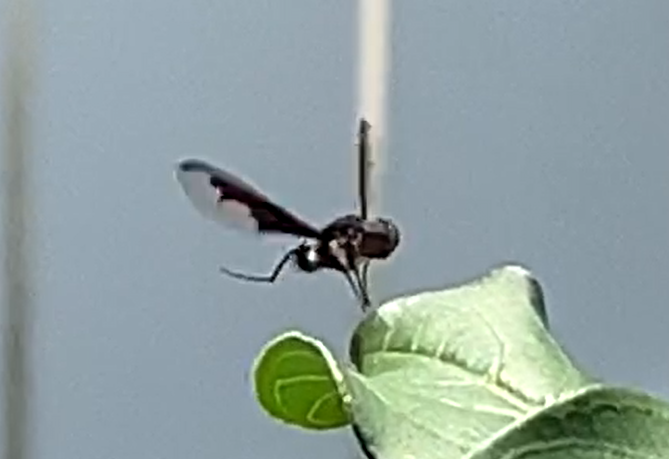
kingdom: Animalia
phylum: Arthropoda
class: Insecta
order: Diptera
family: Bombyliidae
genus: Anthrax
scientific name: Anthrax argyropygus
